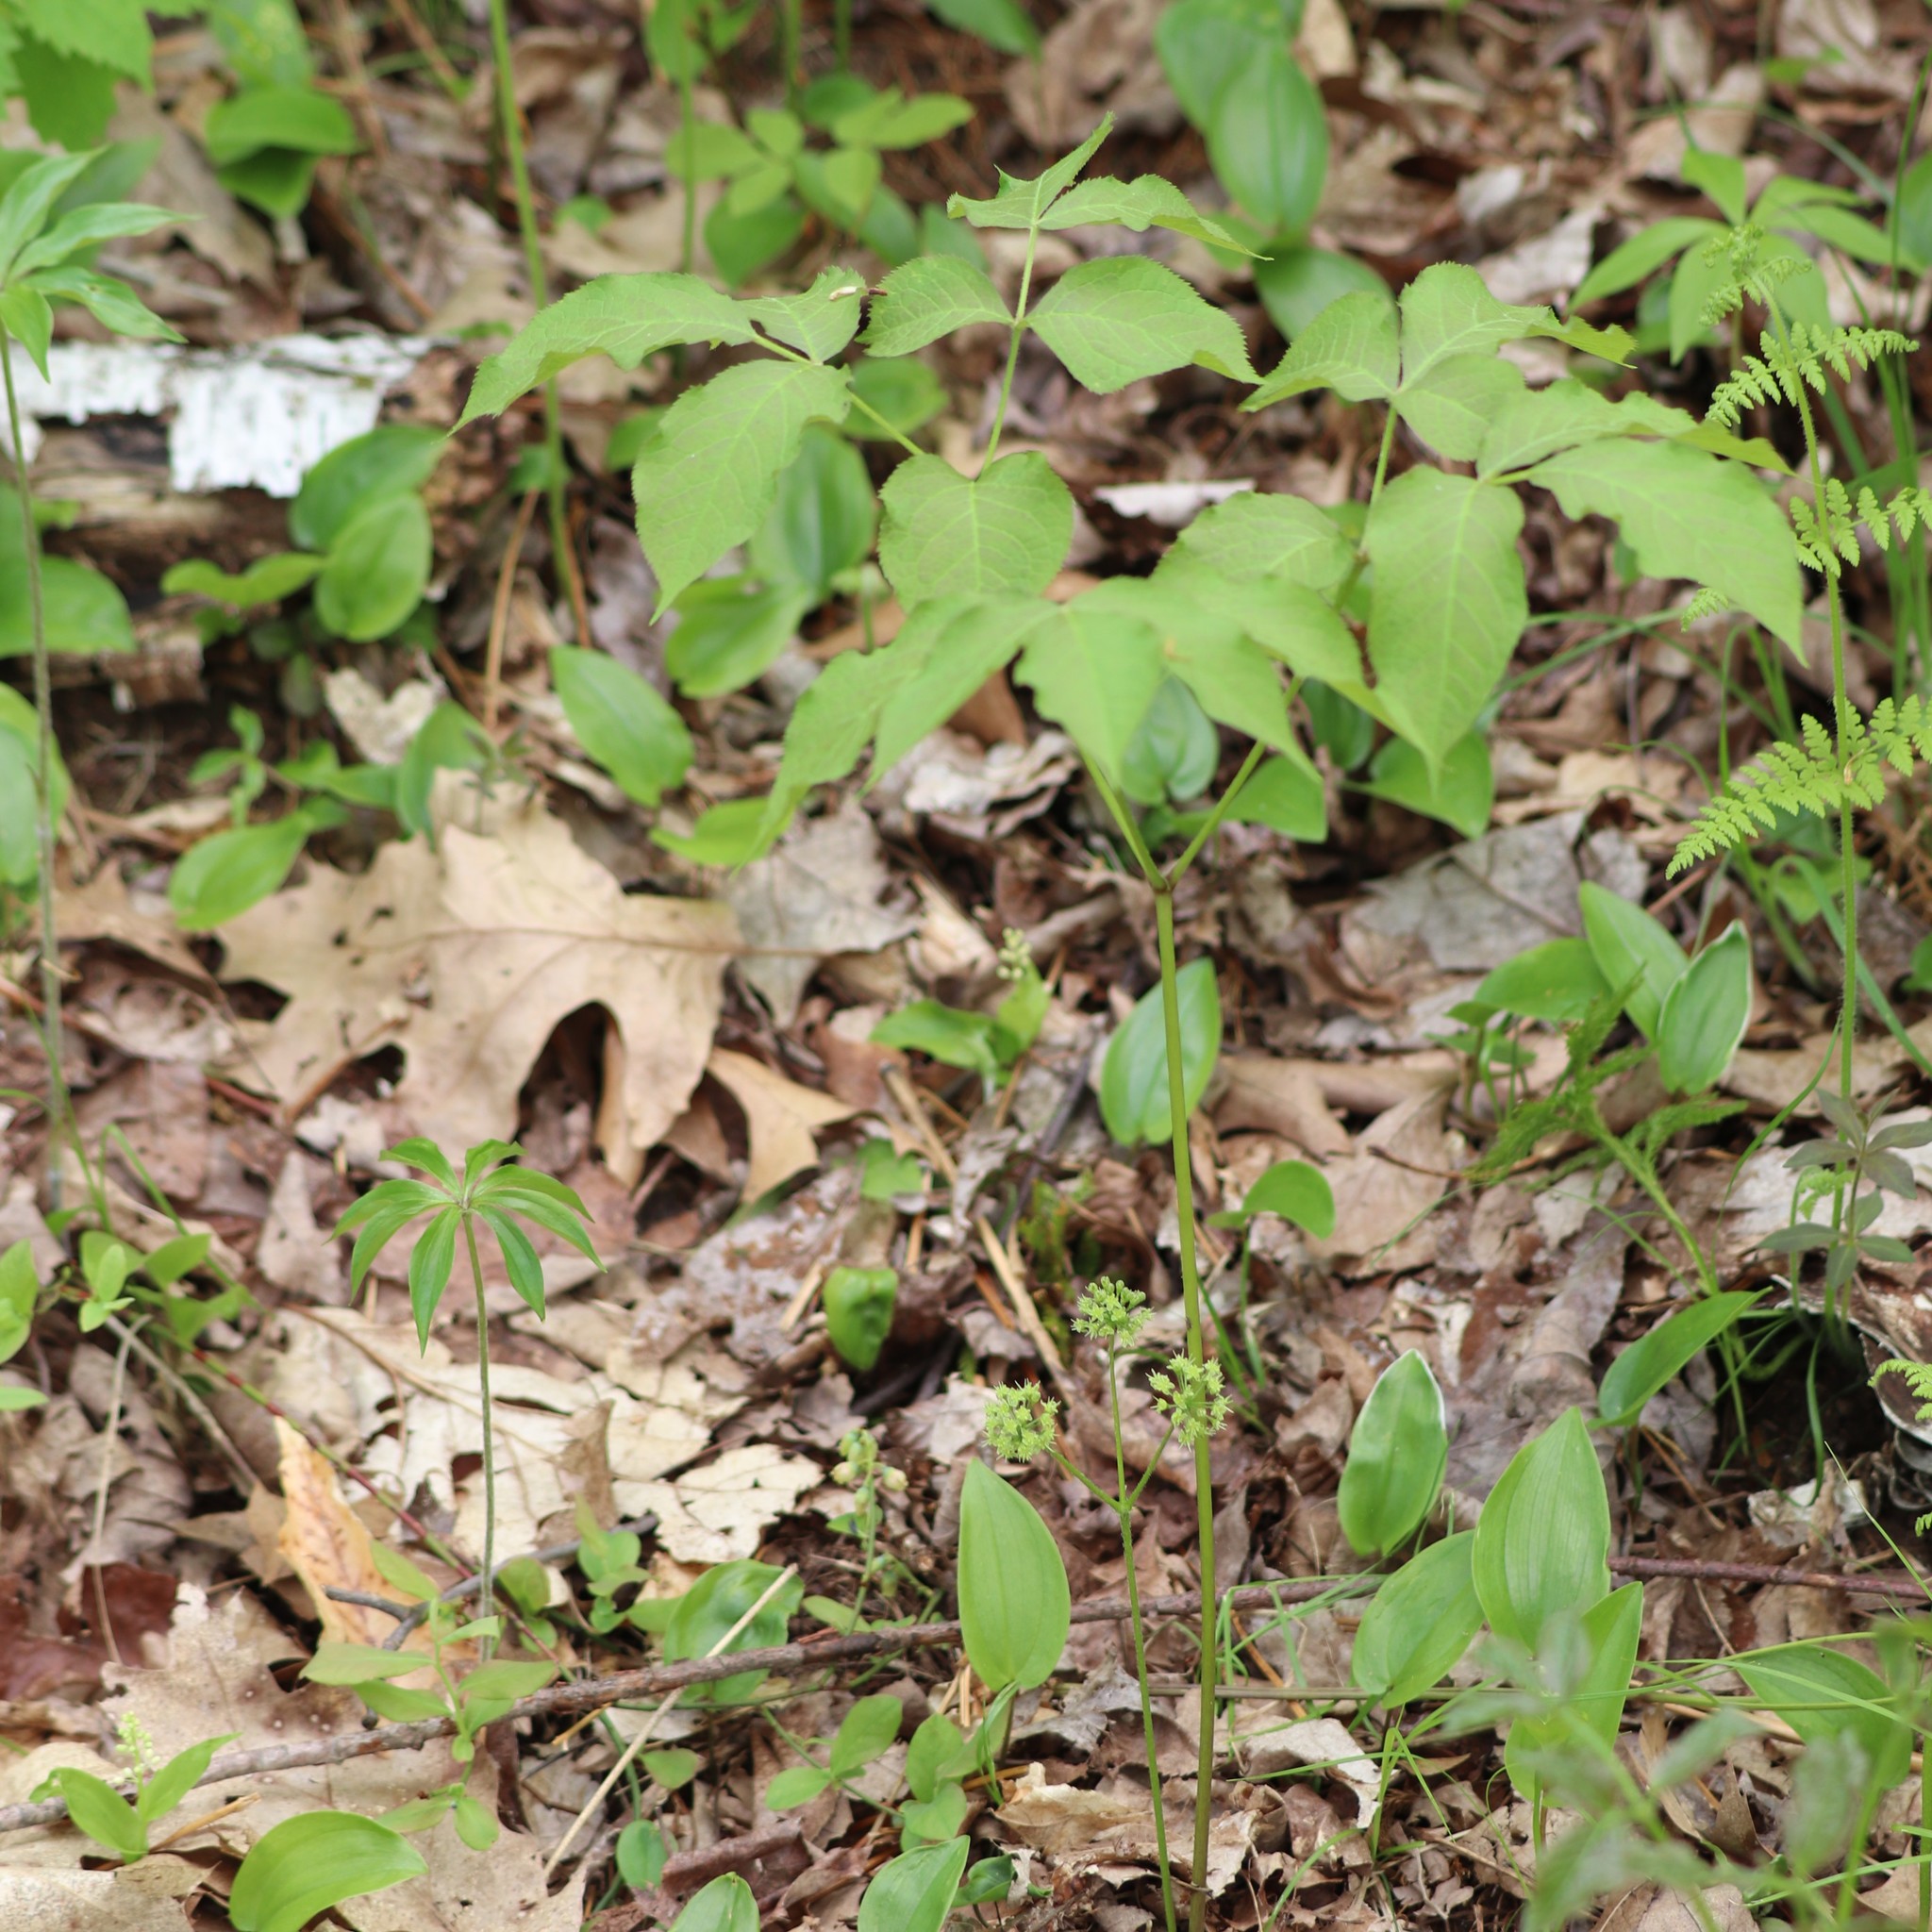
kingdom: Plantae
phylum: Tracheophyta
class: Magnoliopsida
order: Apiales
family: Araliaceae
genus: Aralia
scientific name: Aralia nudicaulis
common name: Wild sarsaparilla
